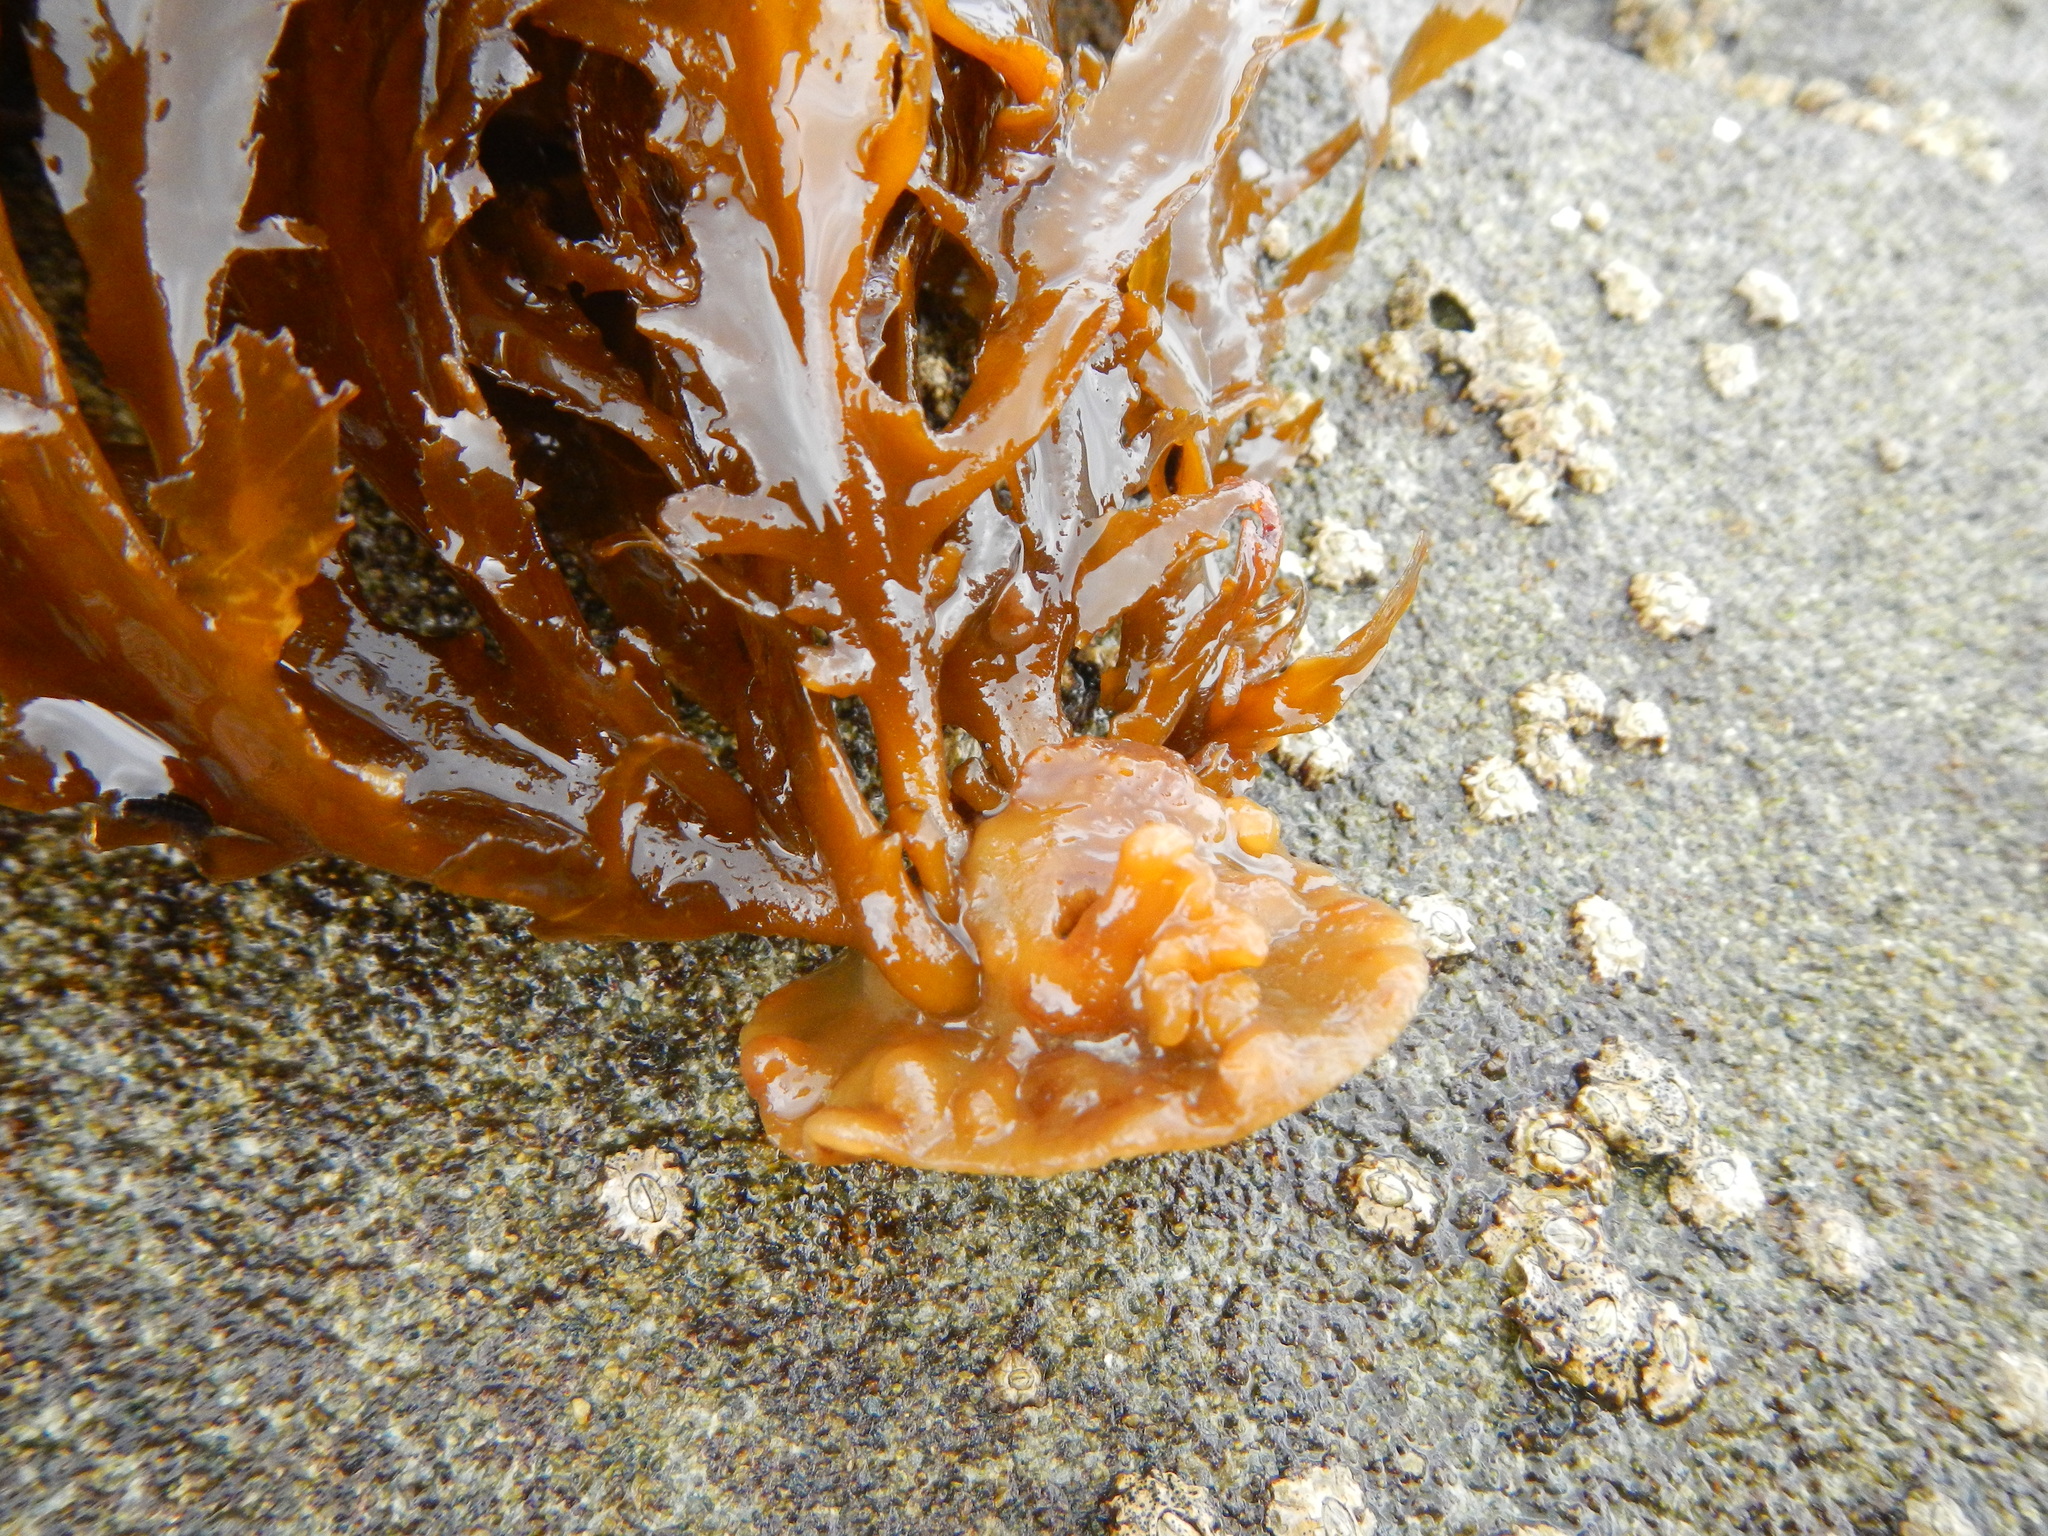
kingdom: Chromista
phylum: Ochrophyta
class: Phaeophyceae
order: Desmarestiales
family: Desmarestiaceae
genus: Desmarestia
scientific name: Desmarestia ligulata
